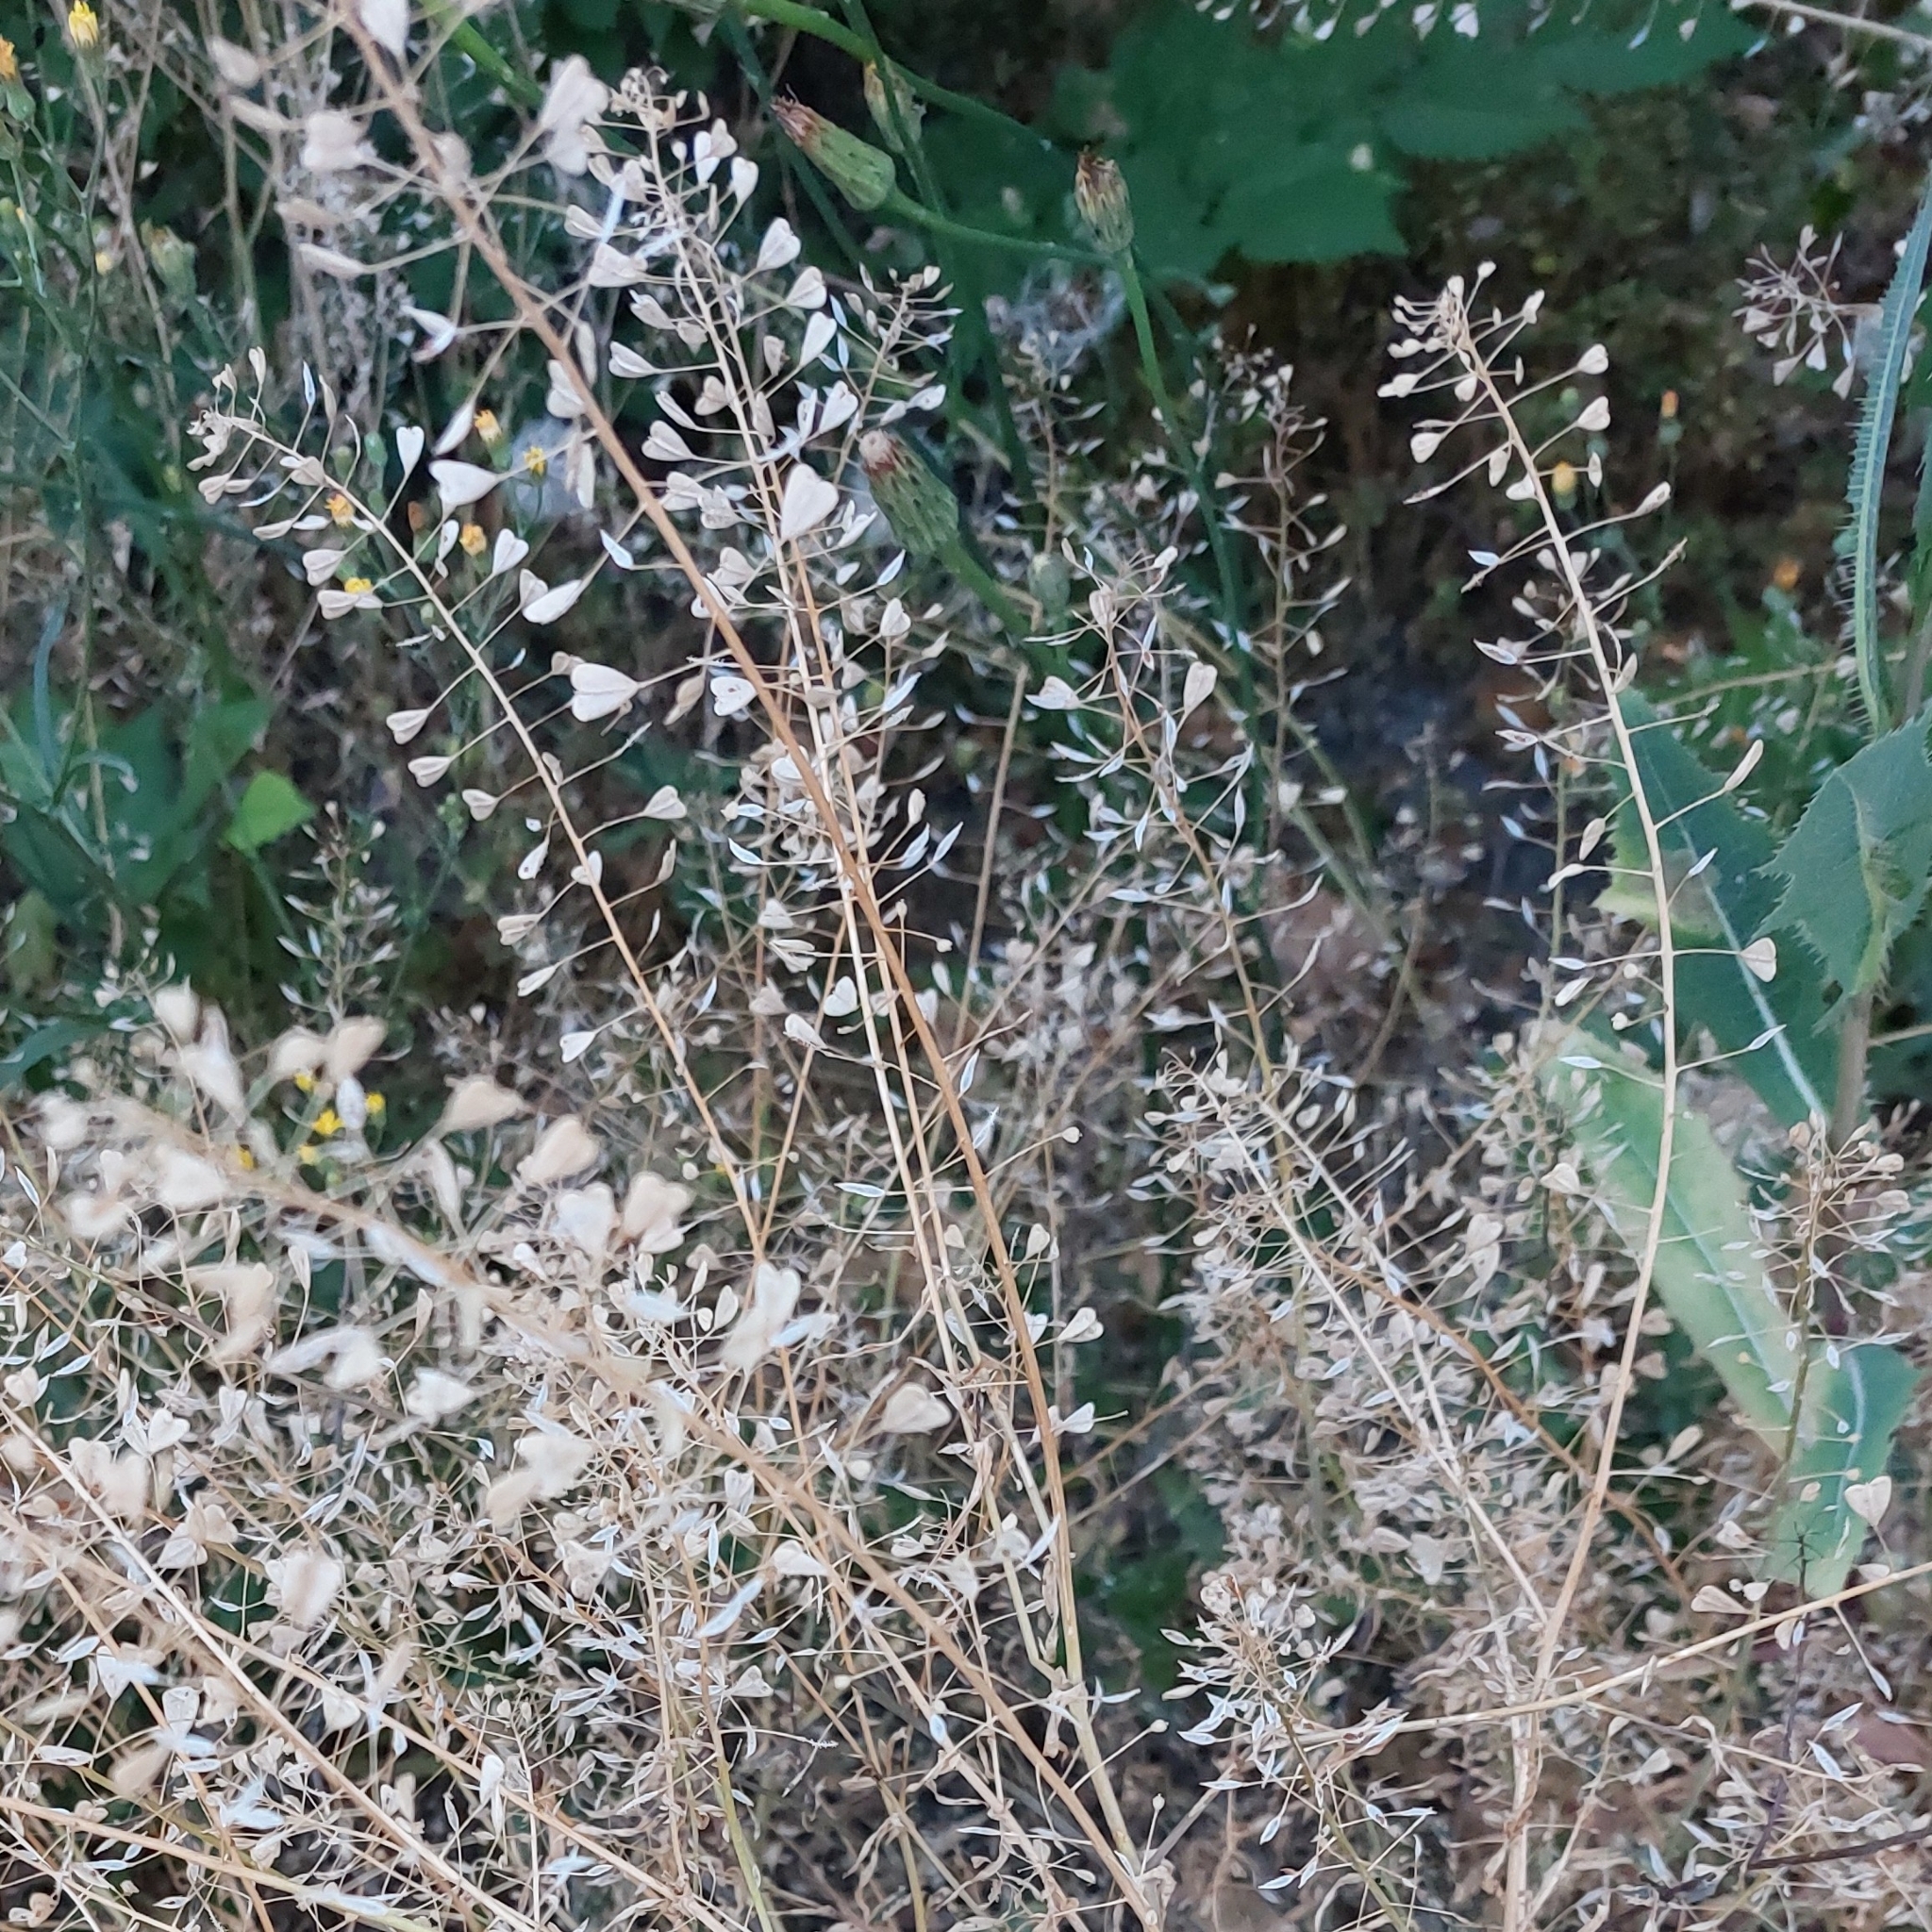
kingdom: Plantae
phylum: Tracheophyta
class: Magnoliopsida
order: Brassicales
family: Brassicaceae
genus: Capsella
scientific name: Capsella bursa-pastoris
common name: Shepherd's purse
